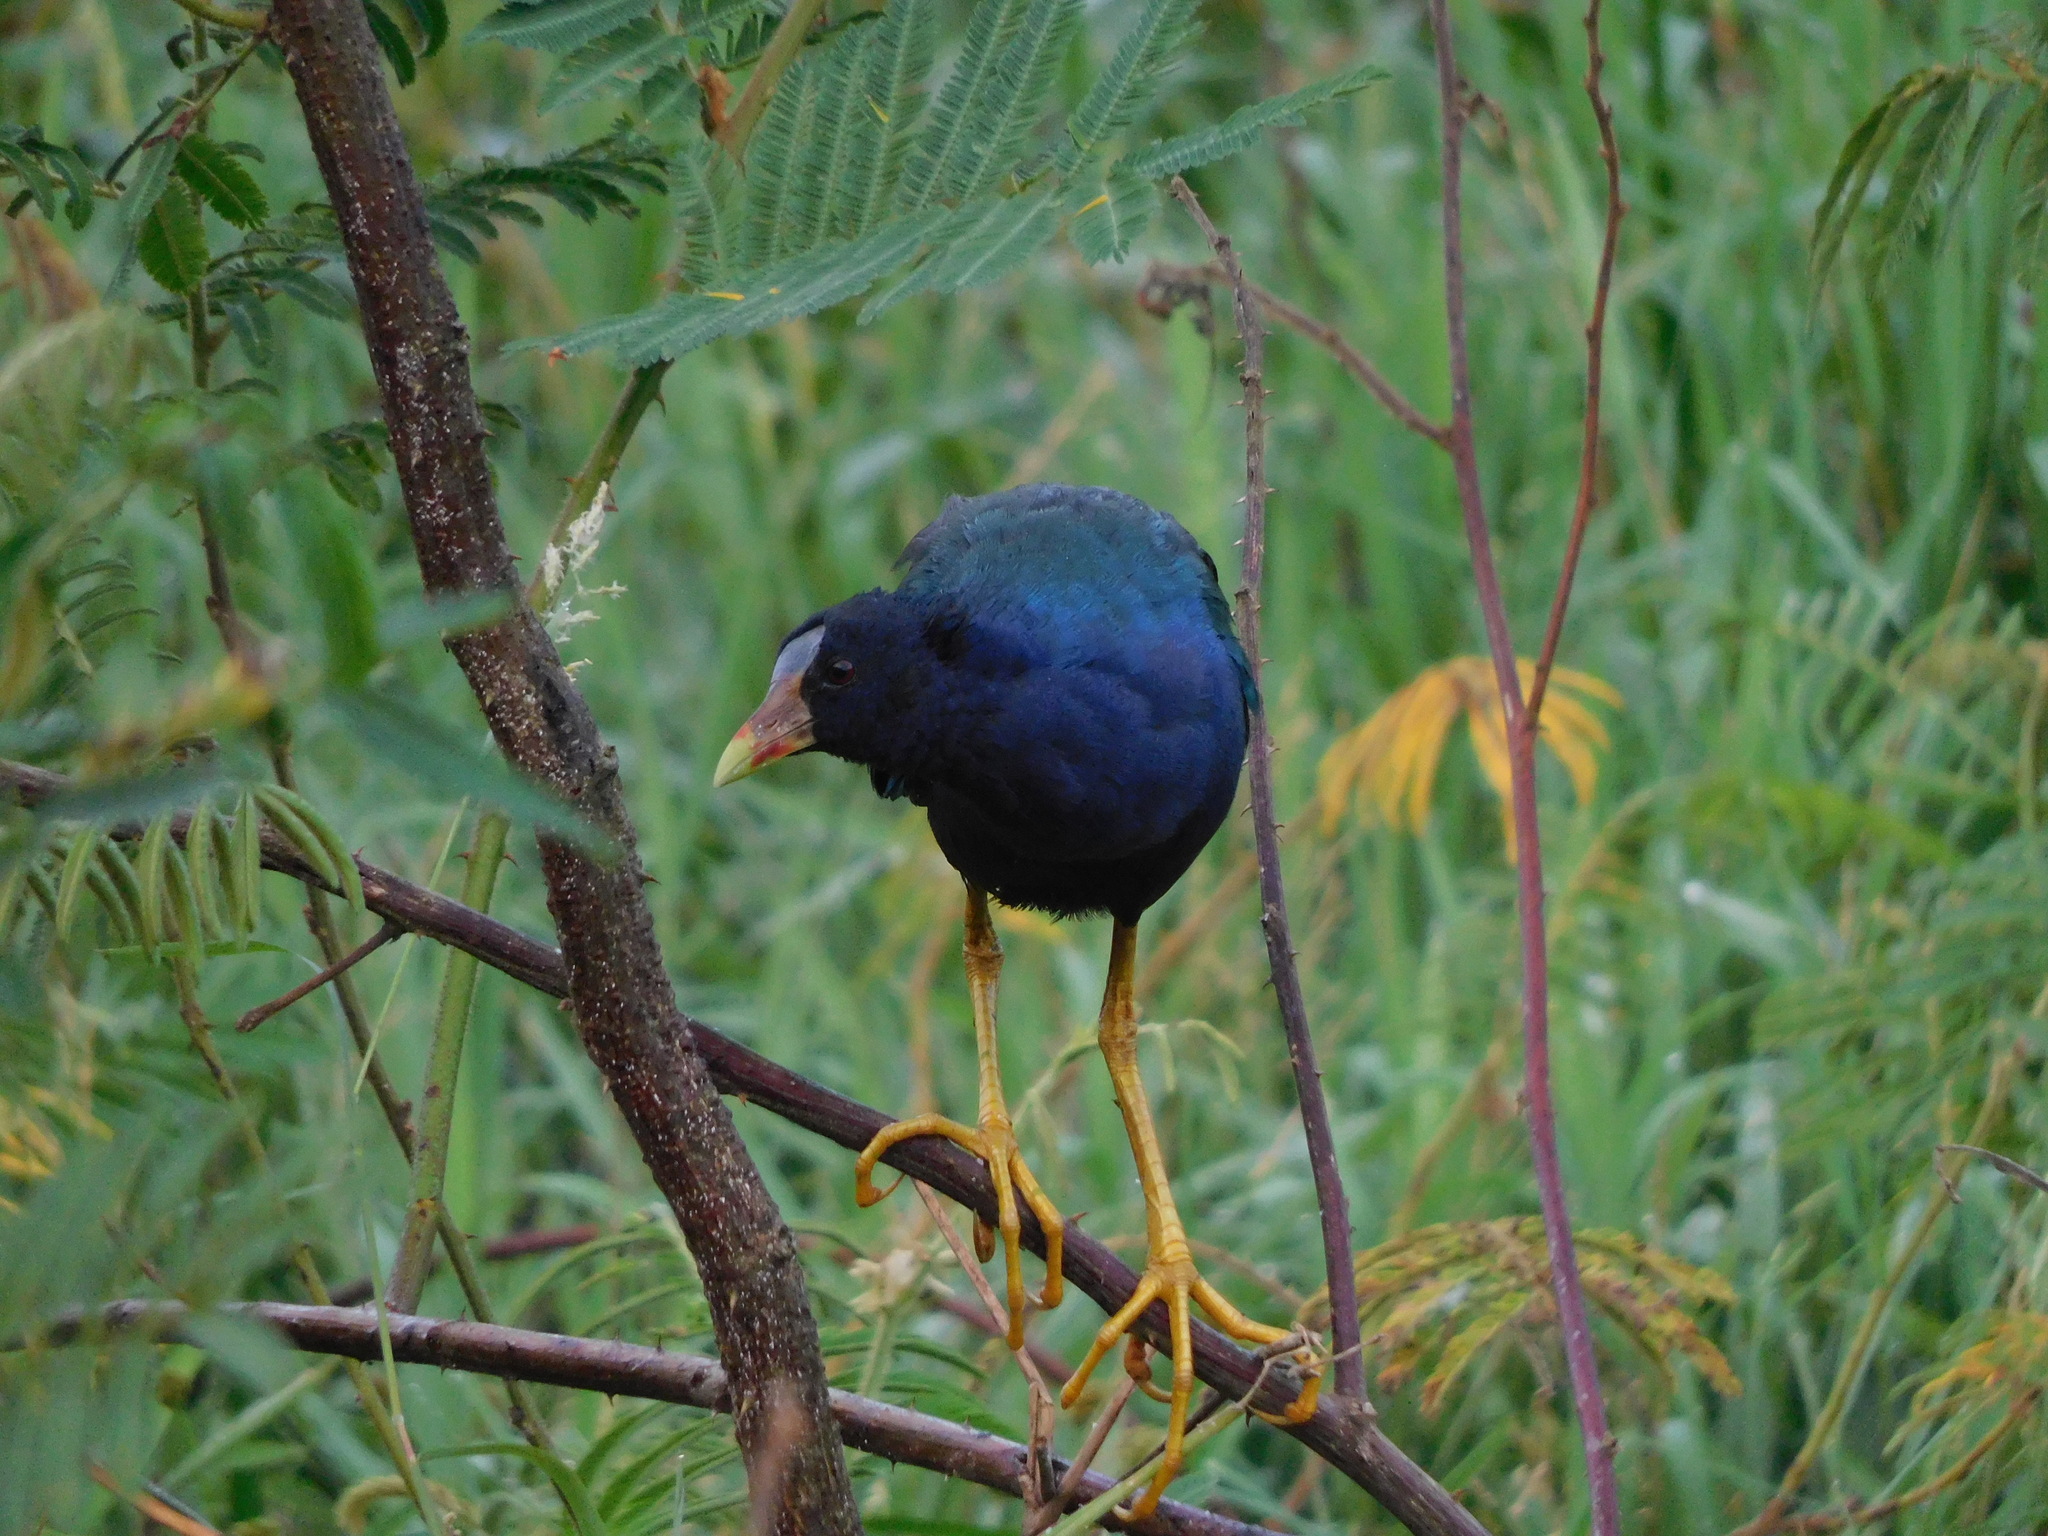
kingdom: Animalia
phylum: Chordata
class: Aves
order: Gruiformes
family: Rallidae
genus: Porphyrio
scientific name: Porphyrio martinica
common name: Purple gallinule
